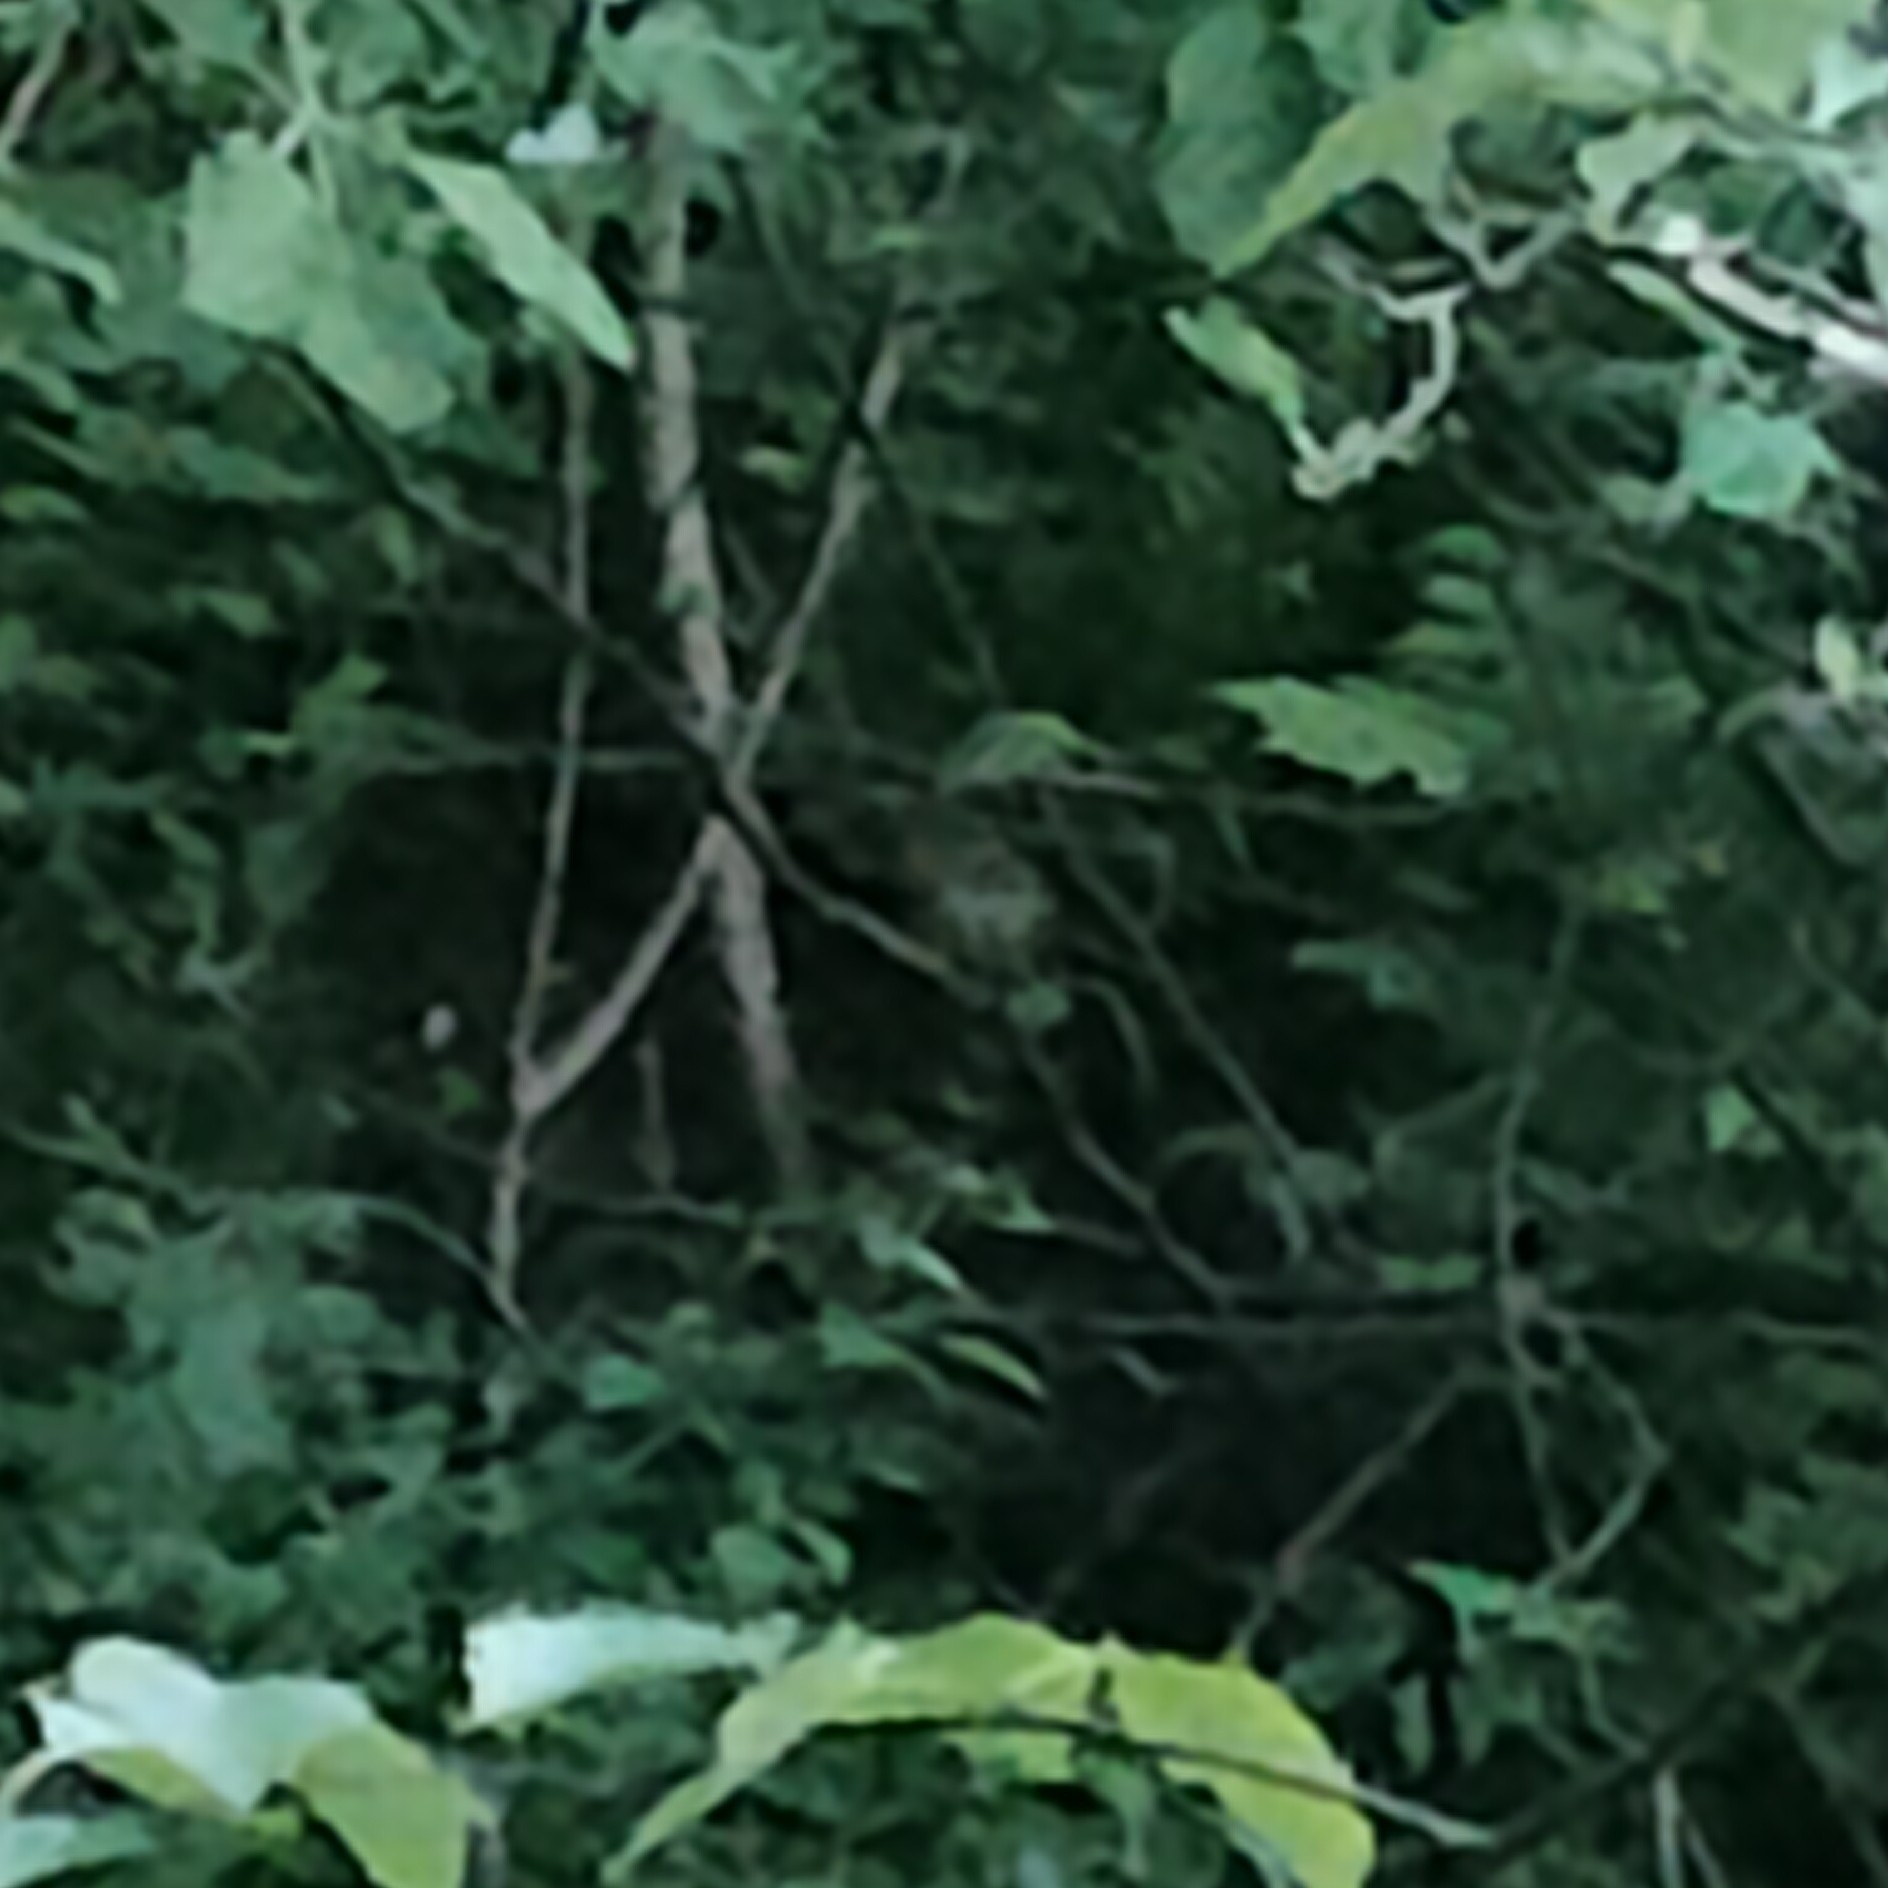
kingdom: Animalia
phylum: Chordata
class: Aves
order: Passeriformes
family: Muscicapidae
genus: Erithacus
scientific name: Erithacus rubecula
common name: European robin
